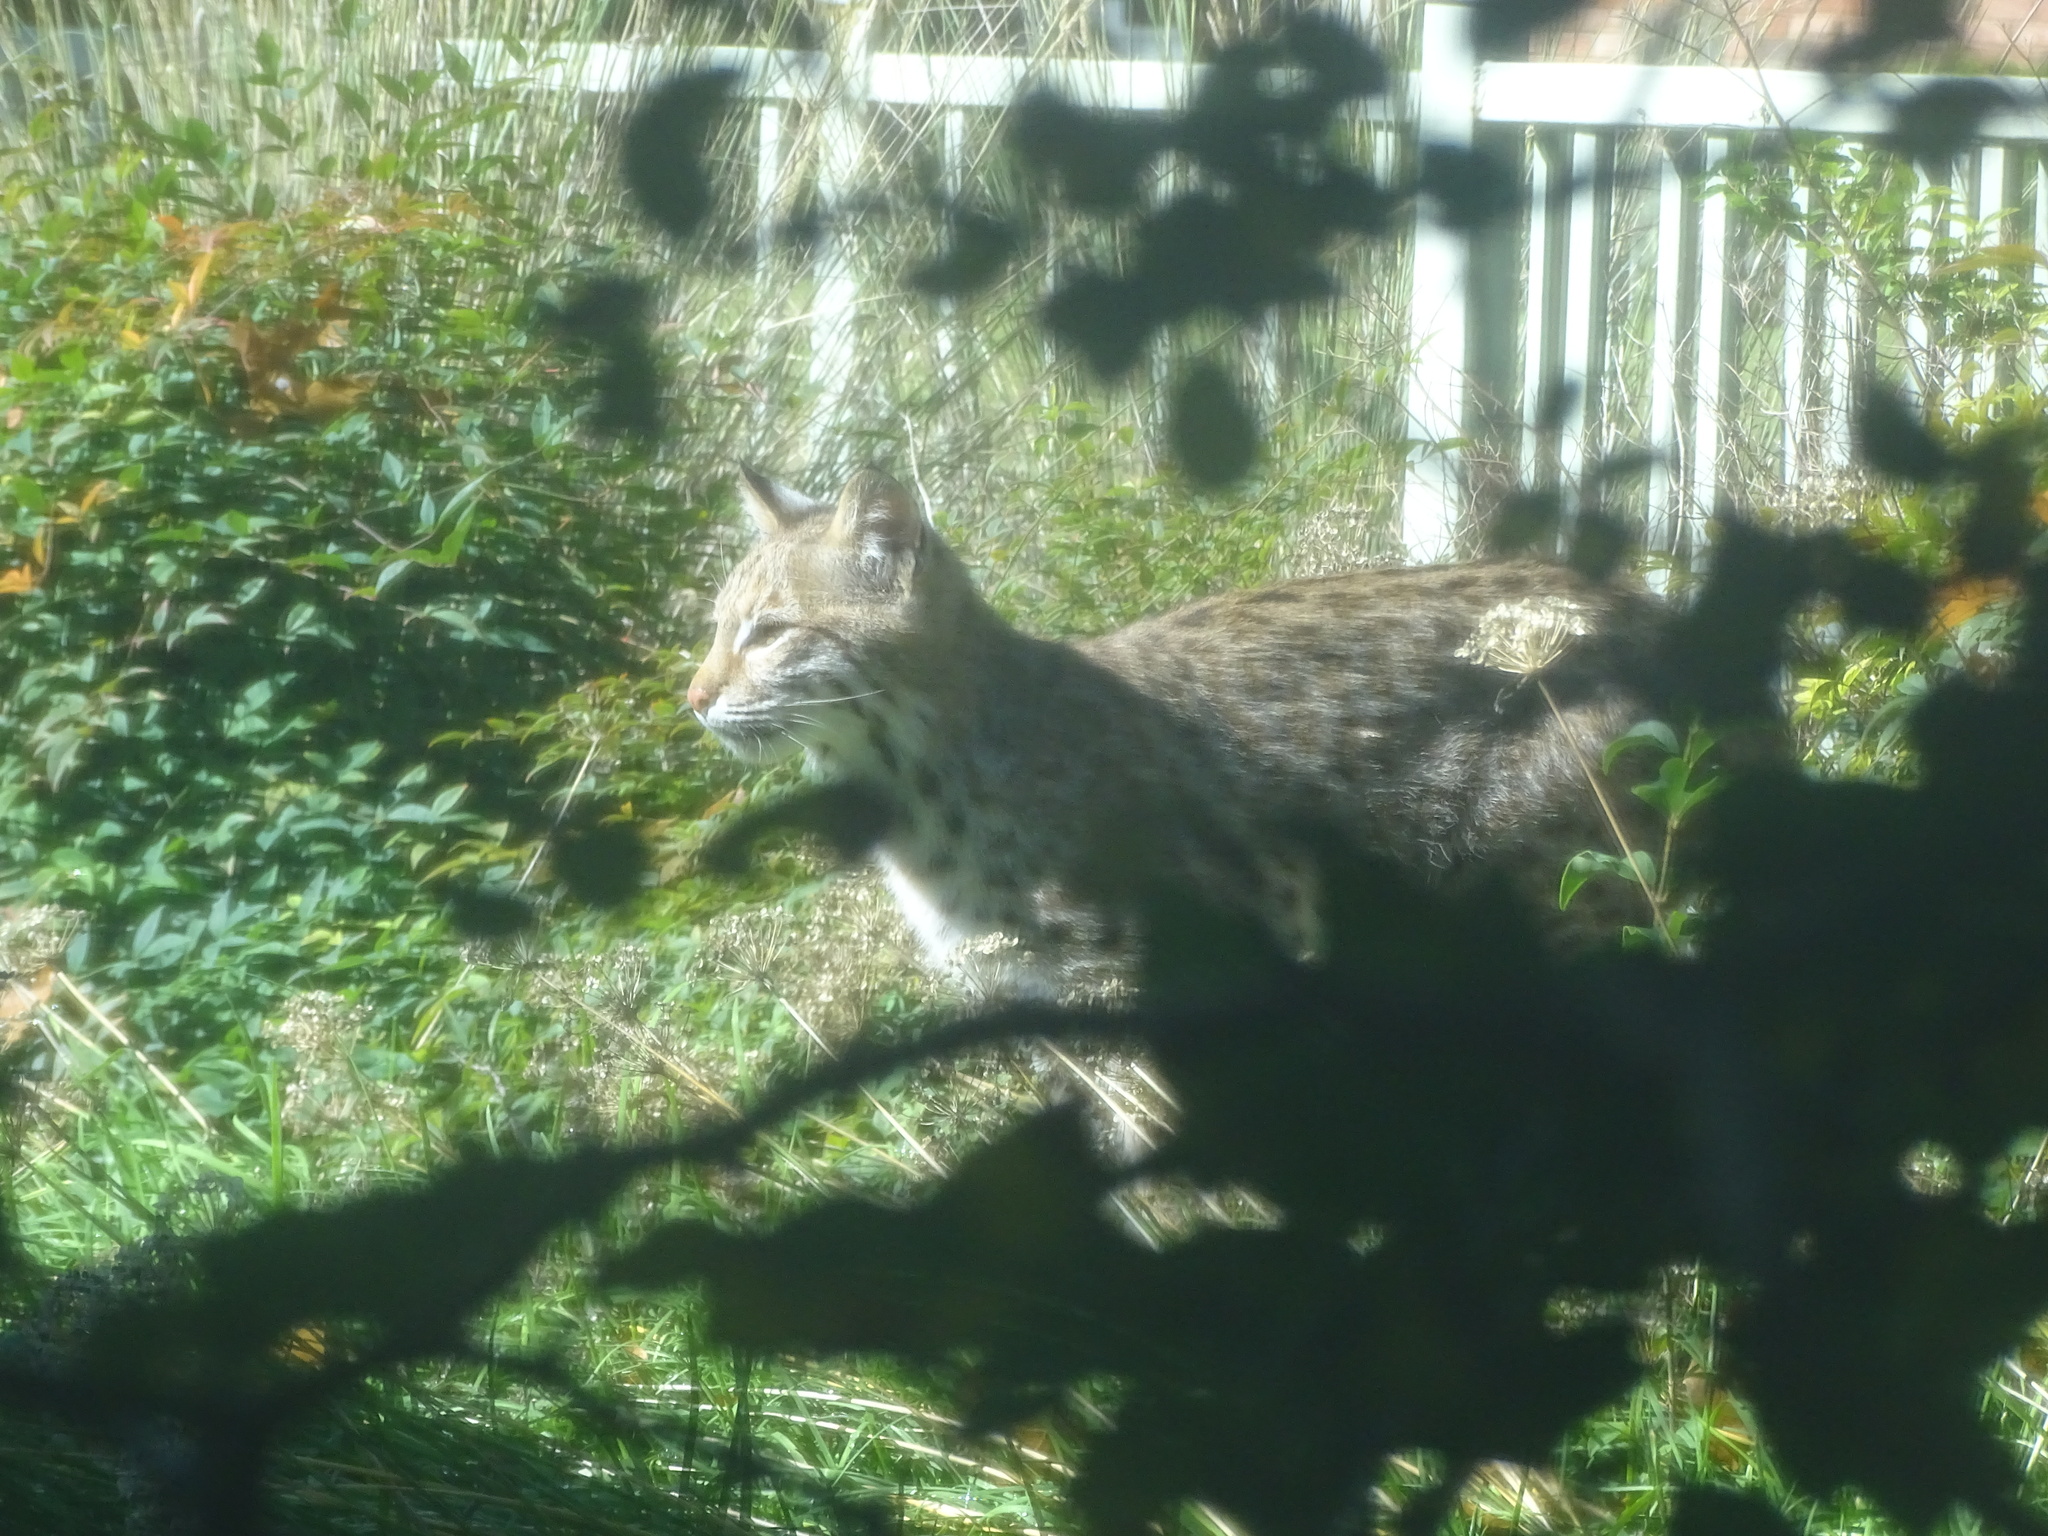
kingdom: Animalia
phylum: Chordata
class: Mammalia
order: Carnivora
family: Felidae
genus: Lynx
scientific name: Lynx rufus
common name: Bobcat
